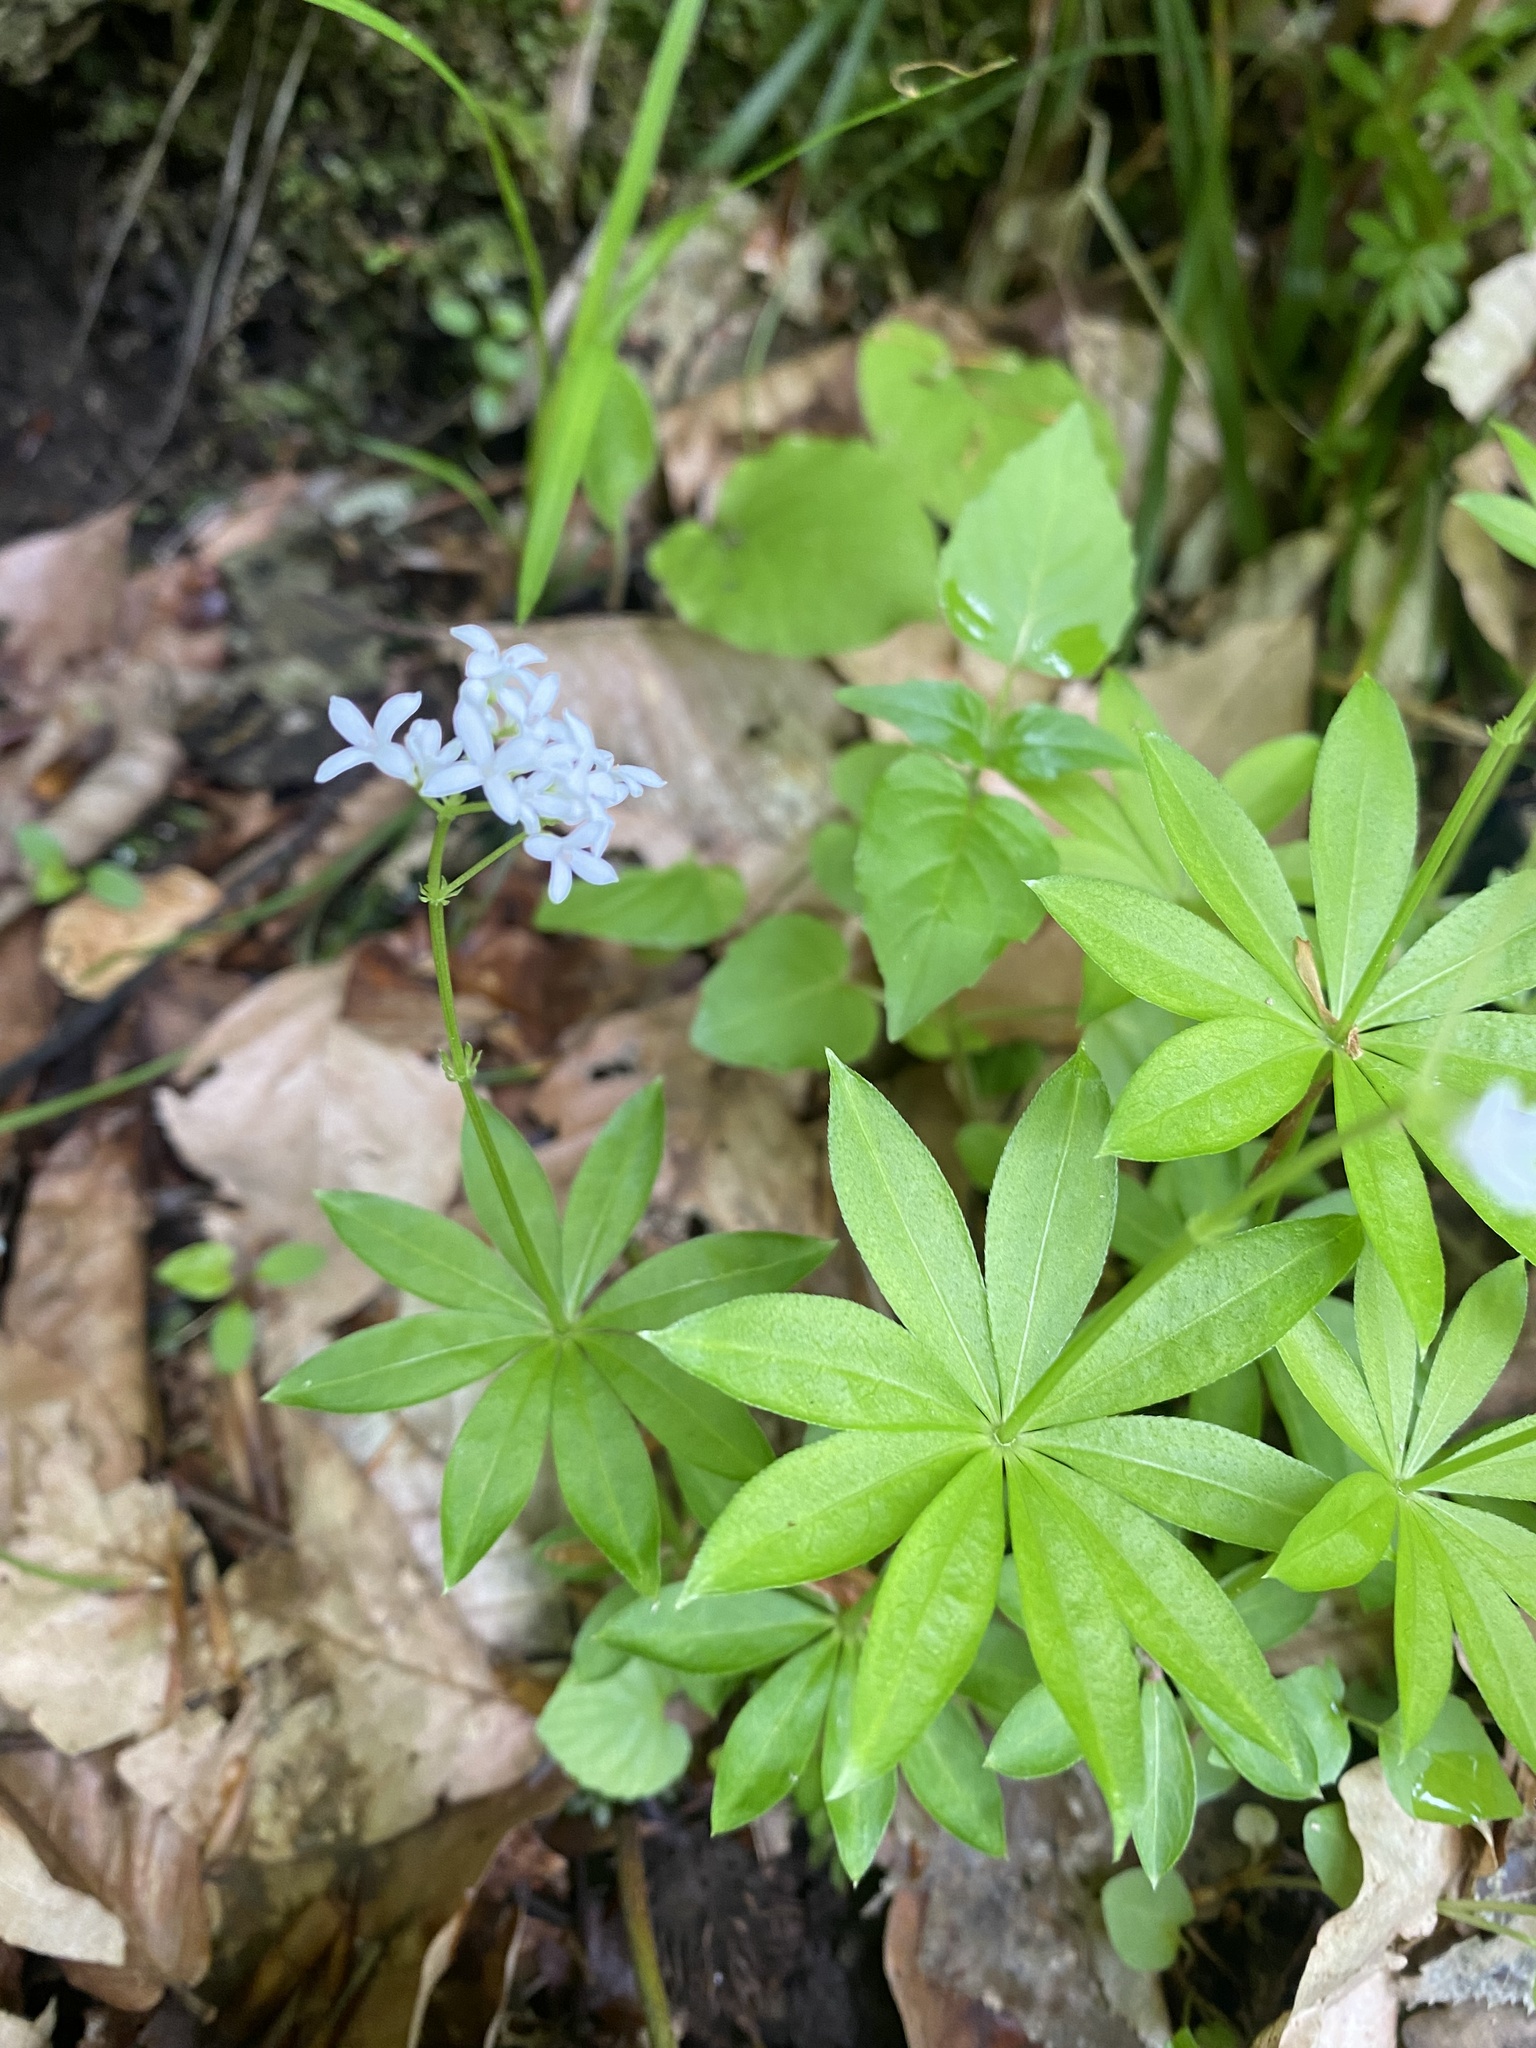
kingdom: Plantae
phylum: Tracheophyta
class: Magnoliopsida
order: Gentianales
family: Rubiaceae
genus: Galium
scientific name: Galium odoratum
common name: Sweet woodruff
